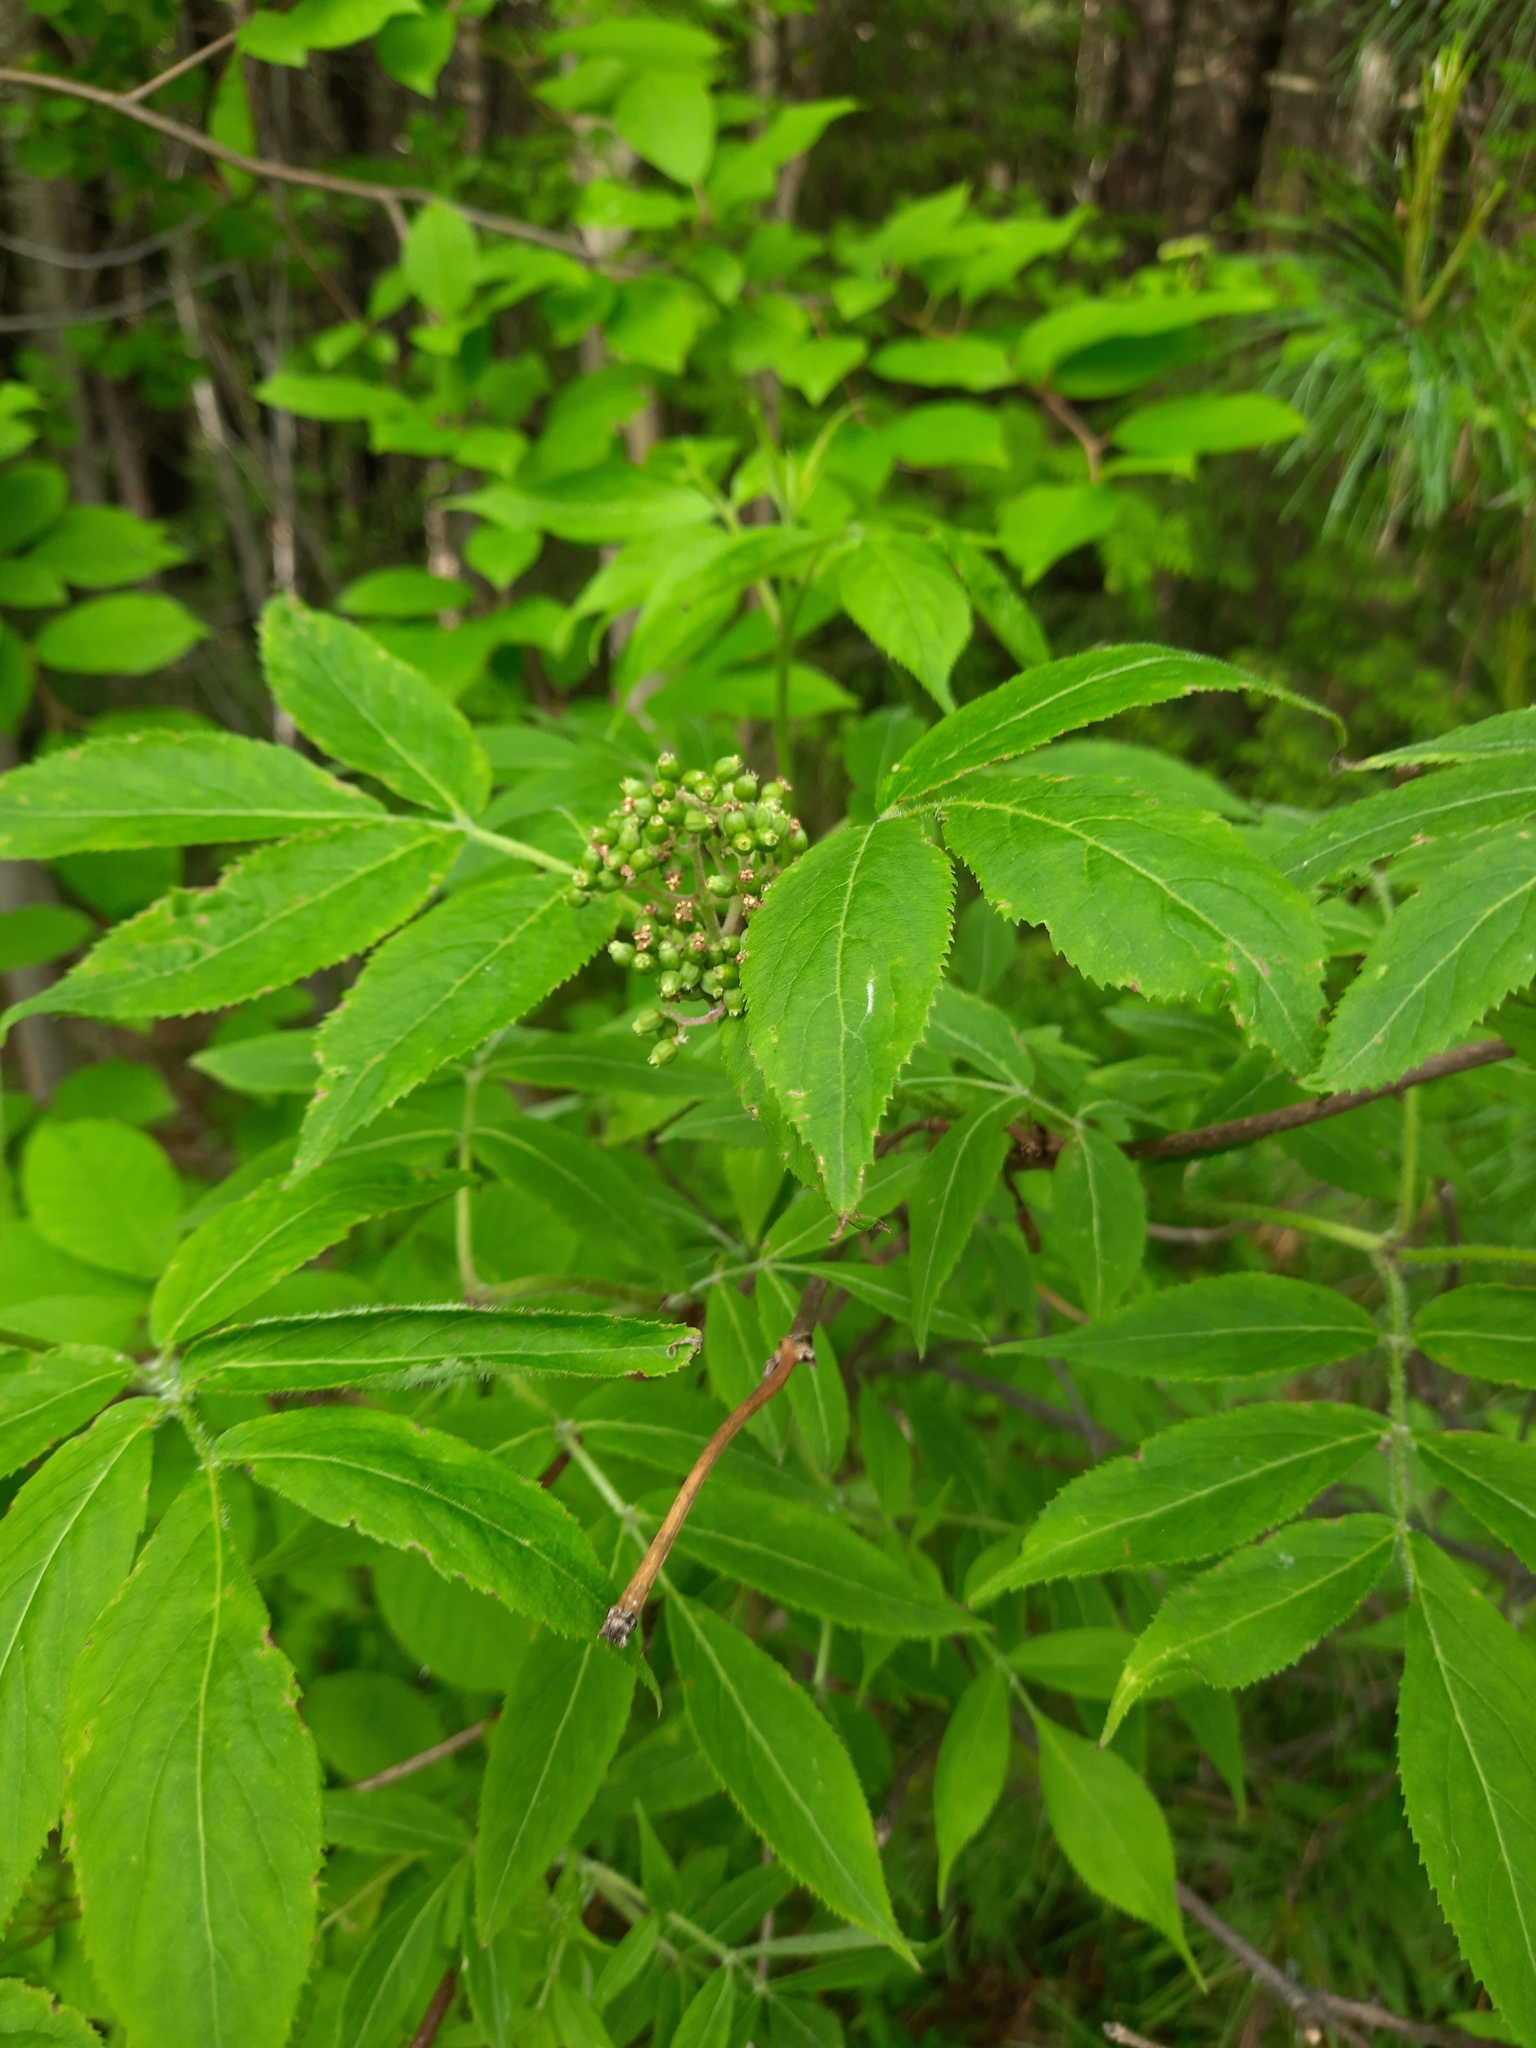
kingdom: Plantae
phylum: Tracheophyta
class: Magnoliopsida
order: Dipsacales
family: Viburnaceae
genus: Sambucus
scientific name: Sambucus sibirica
